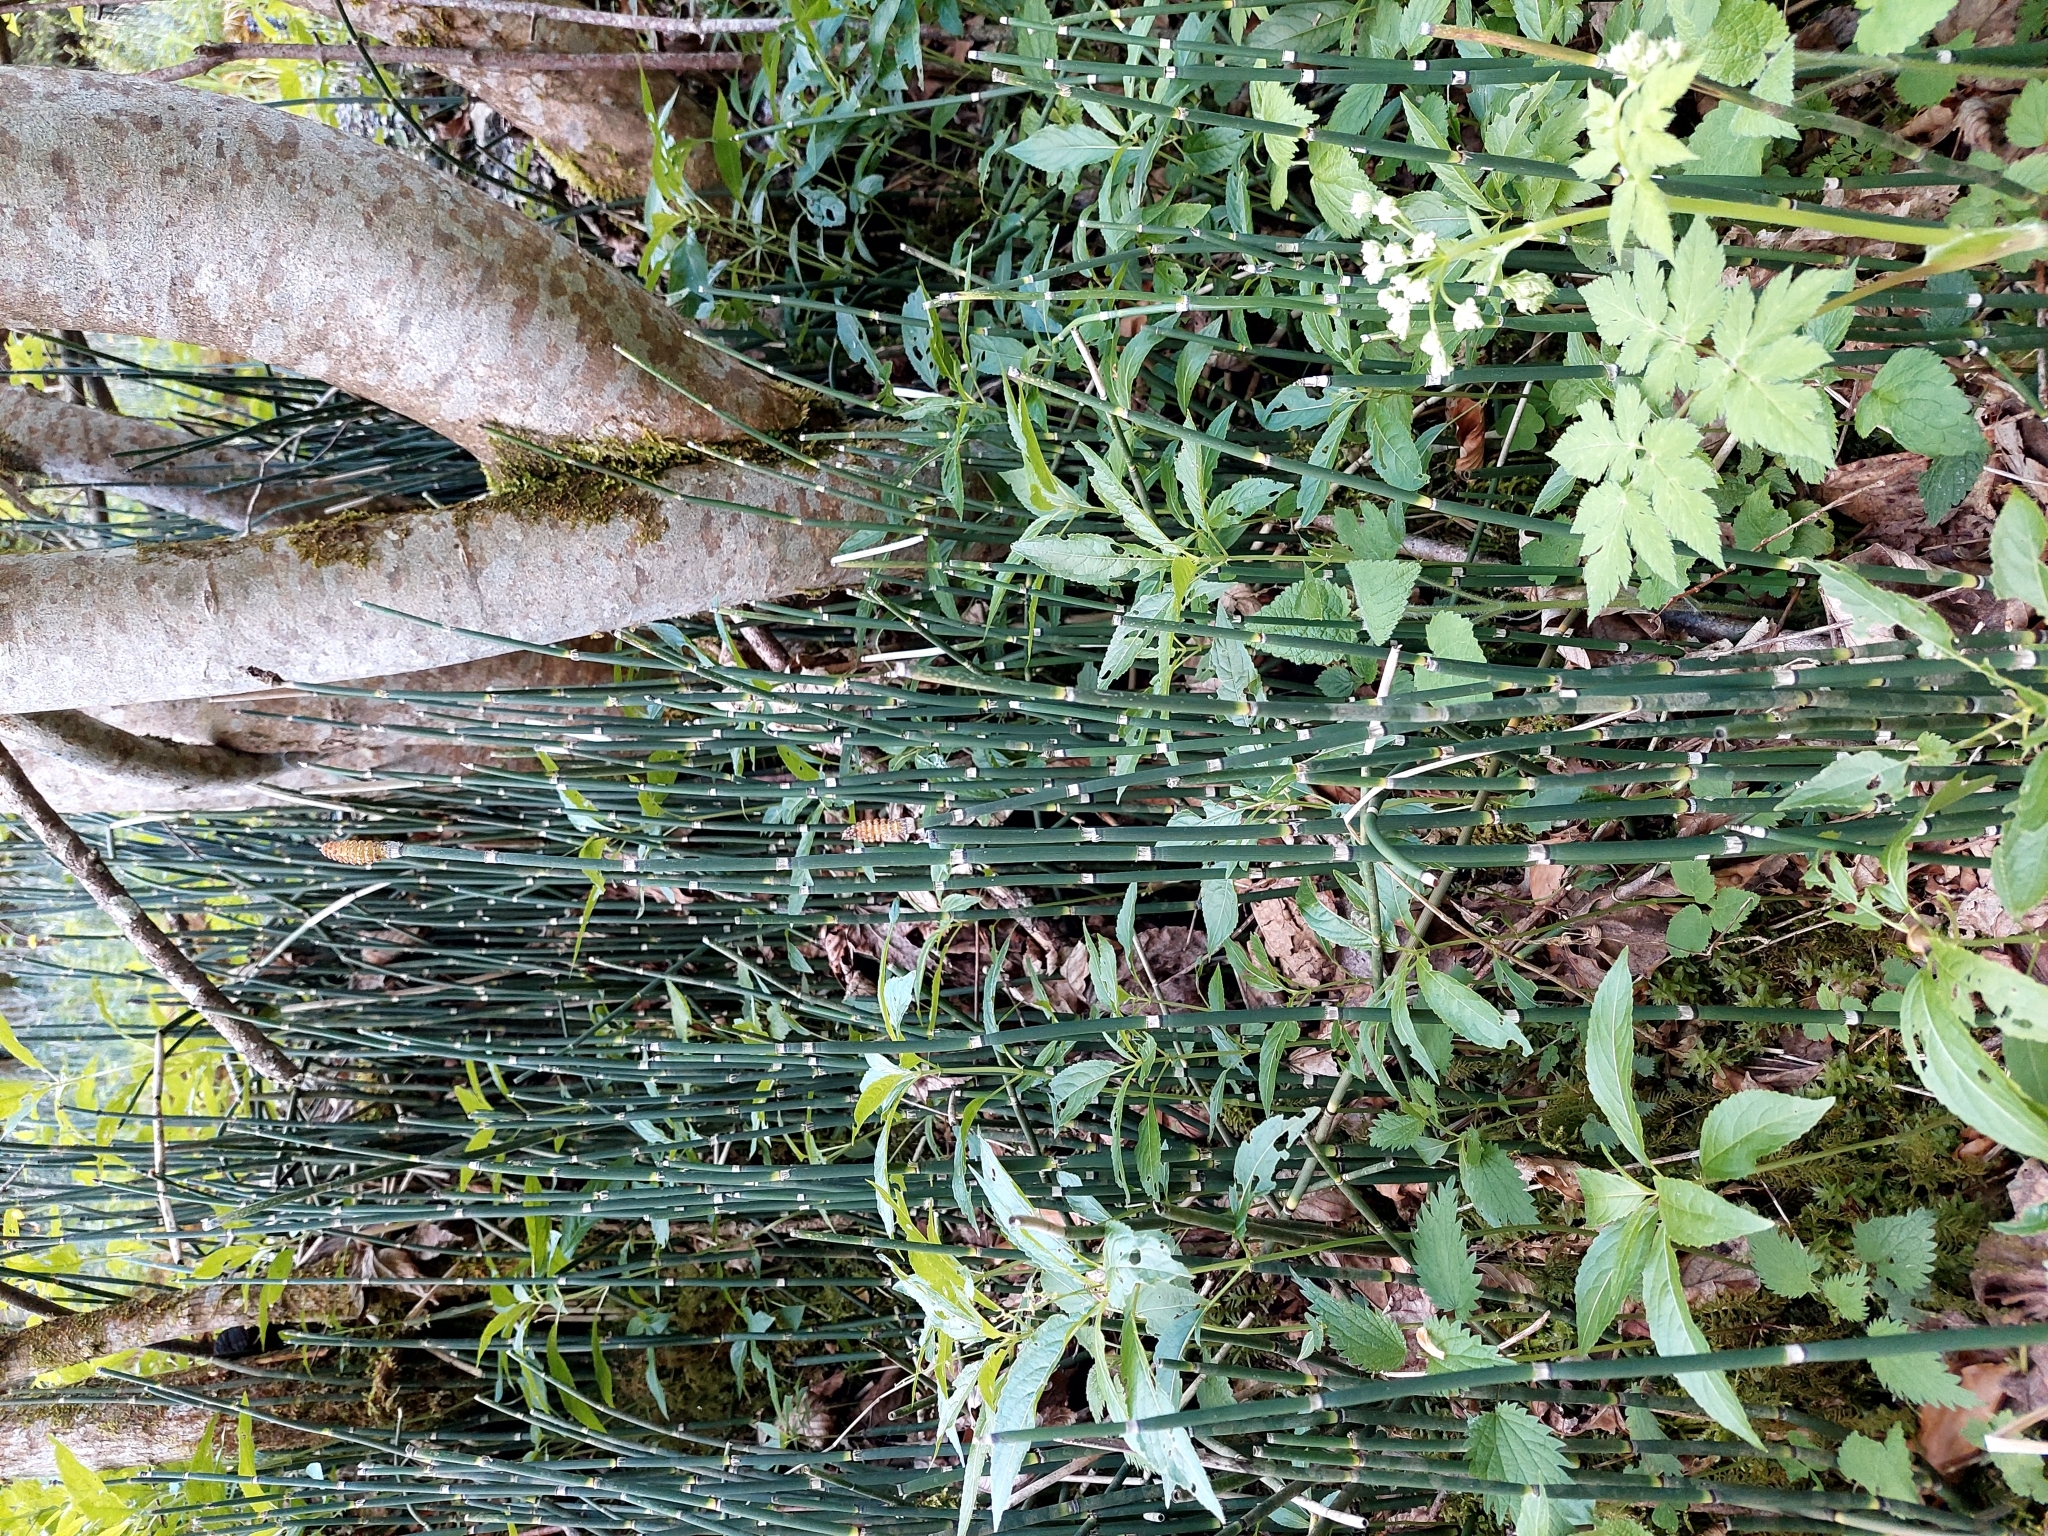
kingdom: Plantae
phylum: Tracheophyta
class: Polypodiopsida
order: Equisetales
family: Equisetaceae
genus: Equisetum
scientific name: Equisetum hyemale
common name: Rough horsetail
